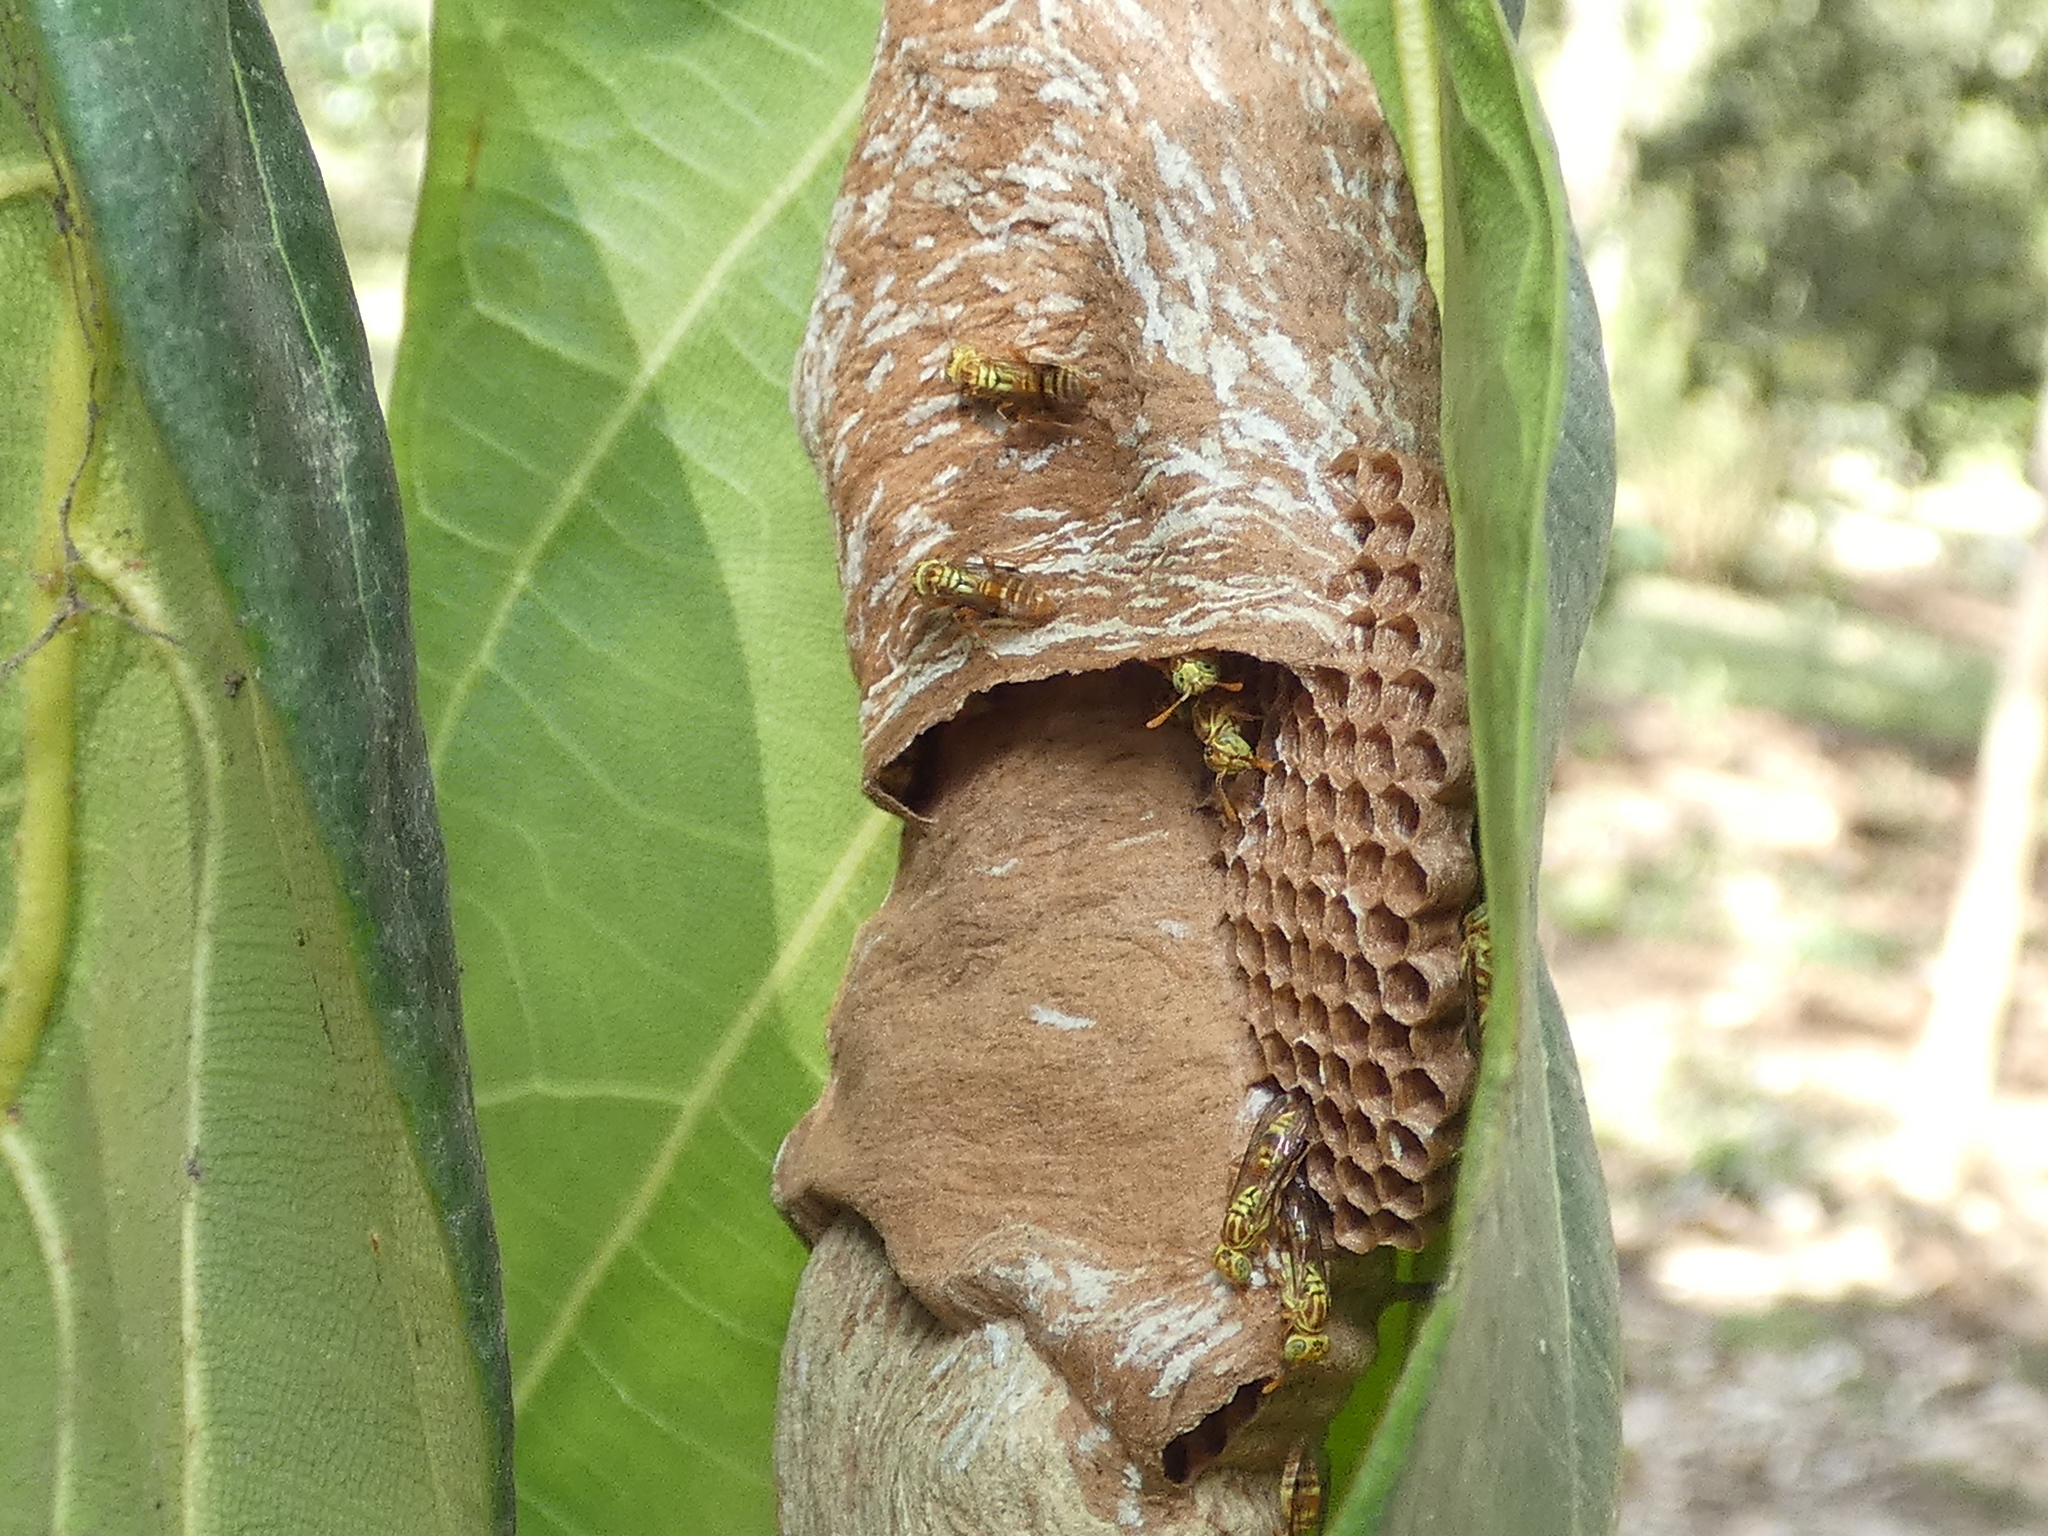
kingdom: Animalia
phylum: Arthropoda
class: Insecta
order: Hymenoptera
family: Vespidae
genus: Protopolybia
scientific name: Protopolybia potiguara
